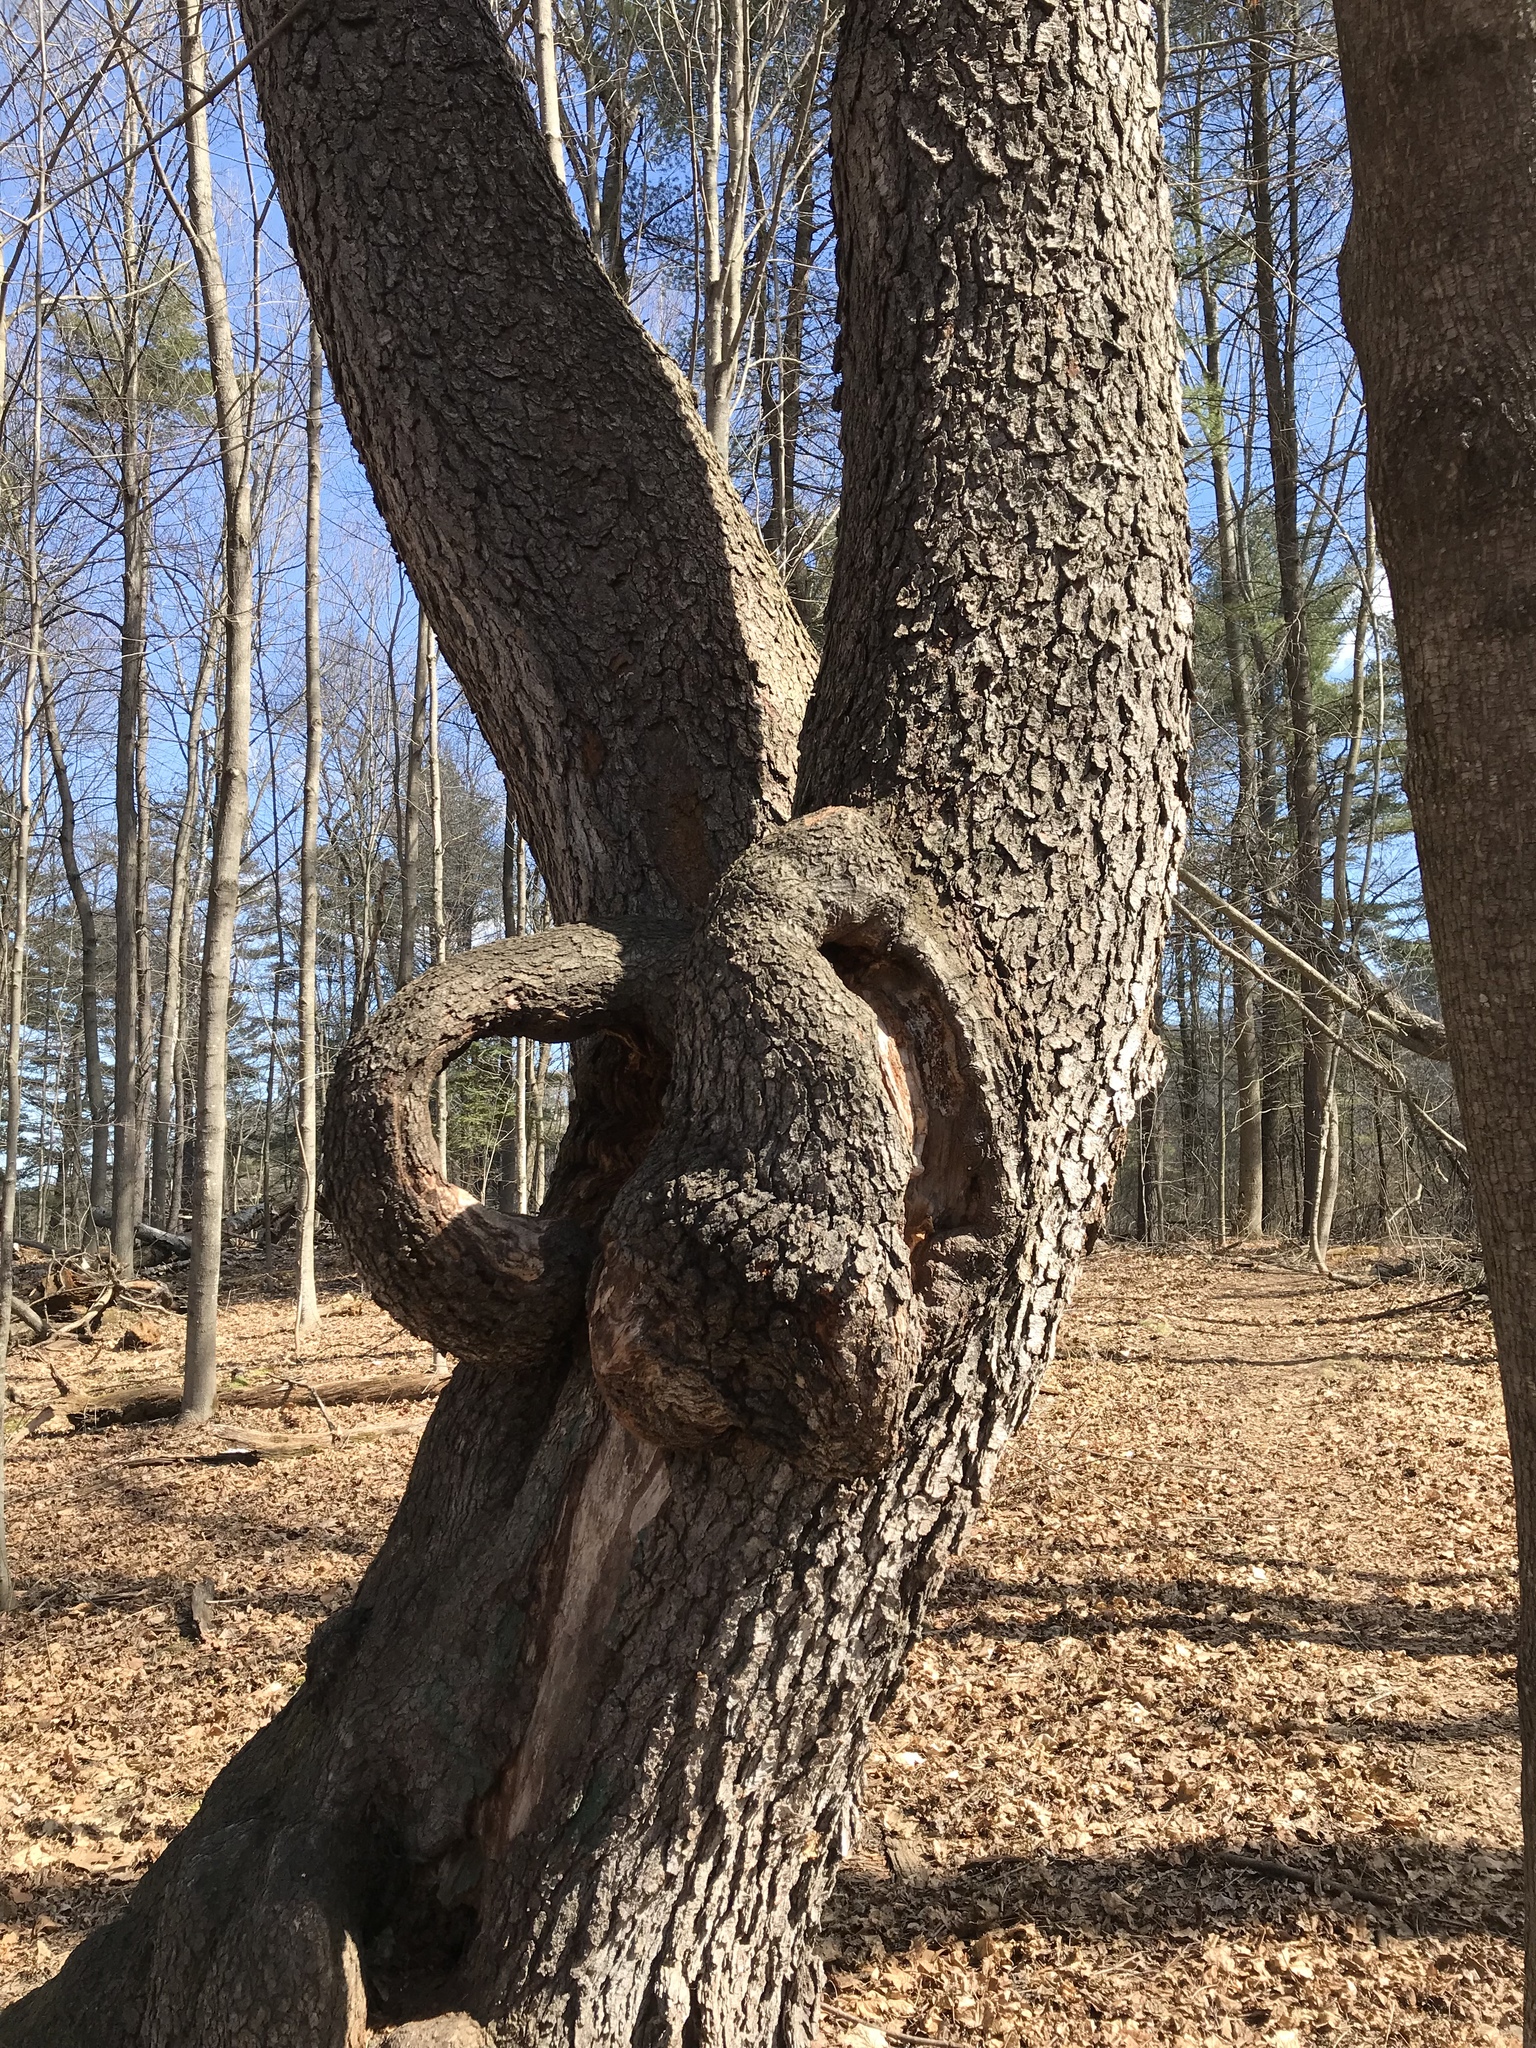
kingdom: Plantae
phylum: Tracheophyta
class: Magnoliopsida
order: Rosales
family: Rosaceae
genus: Prunus
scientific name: Prunus serotina
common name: Black cherry
